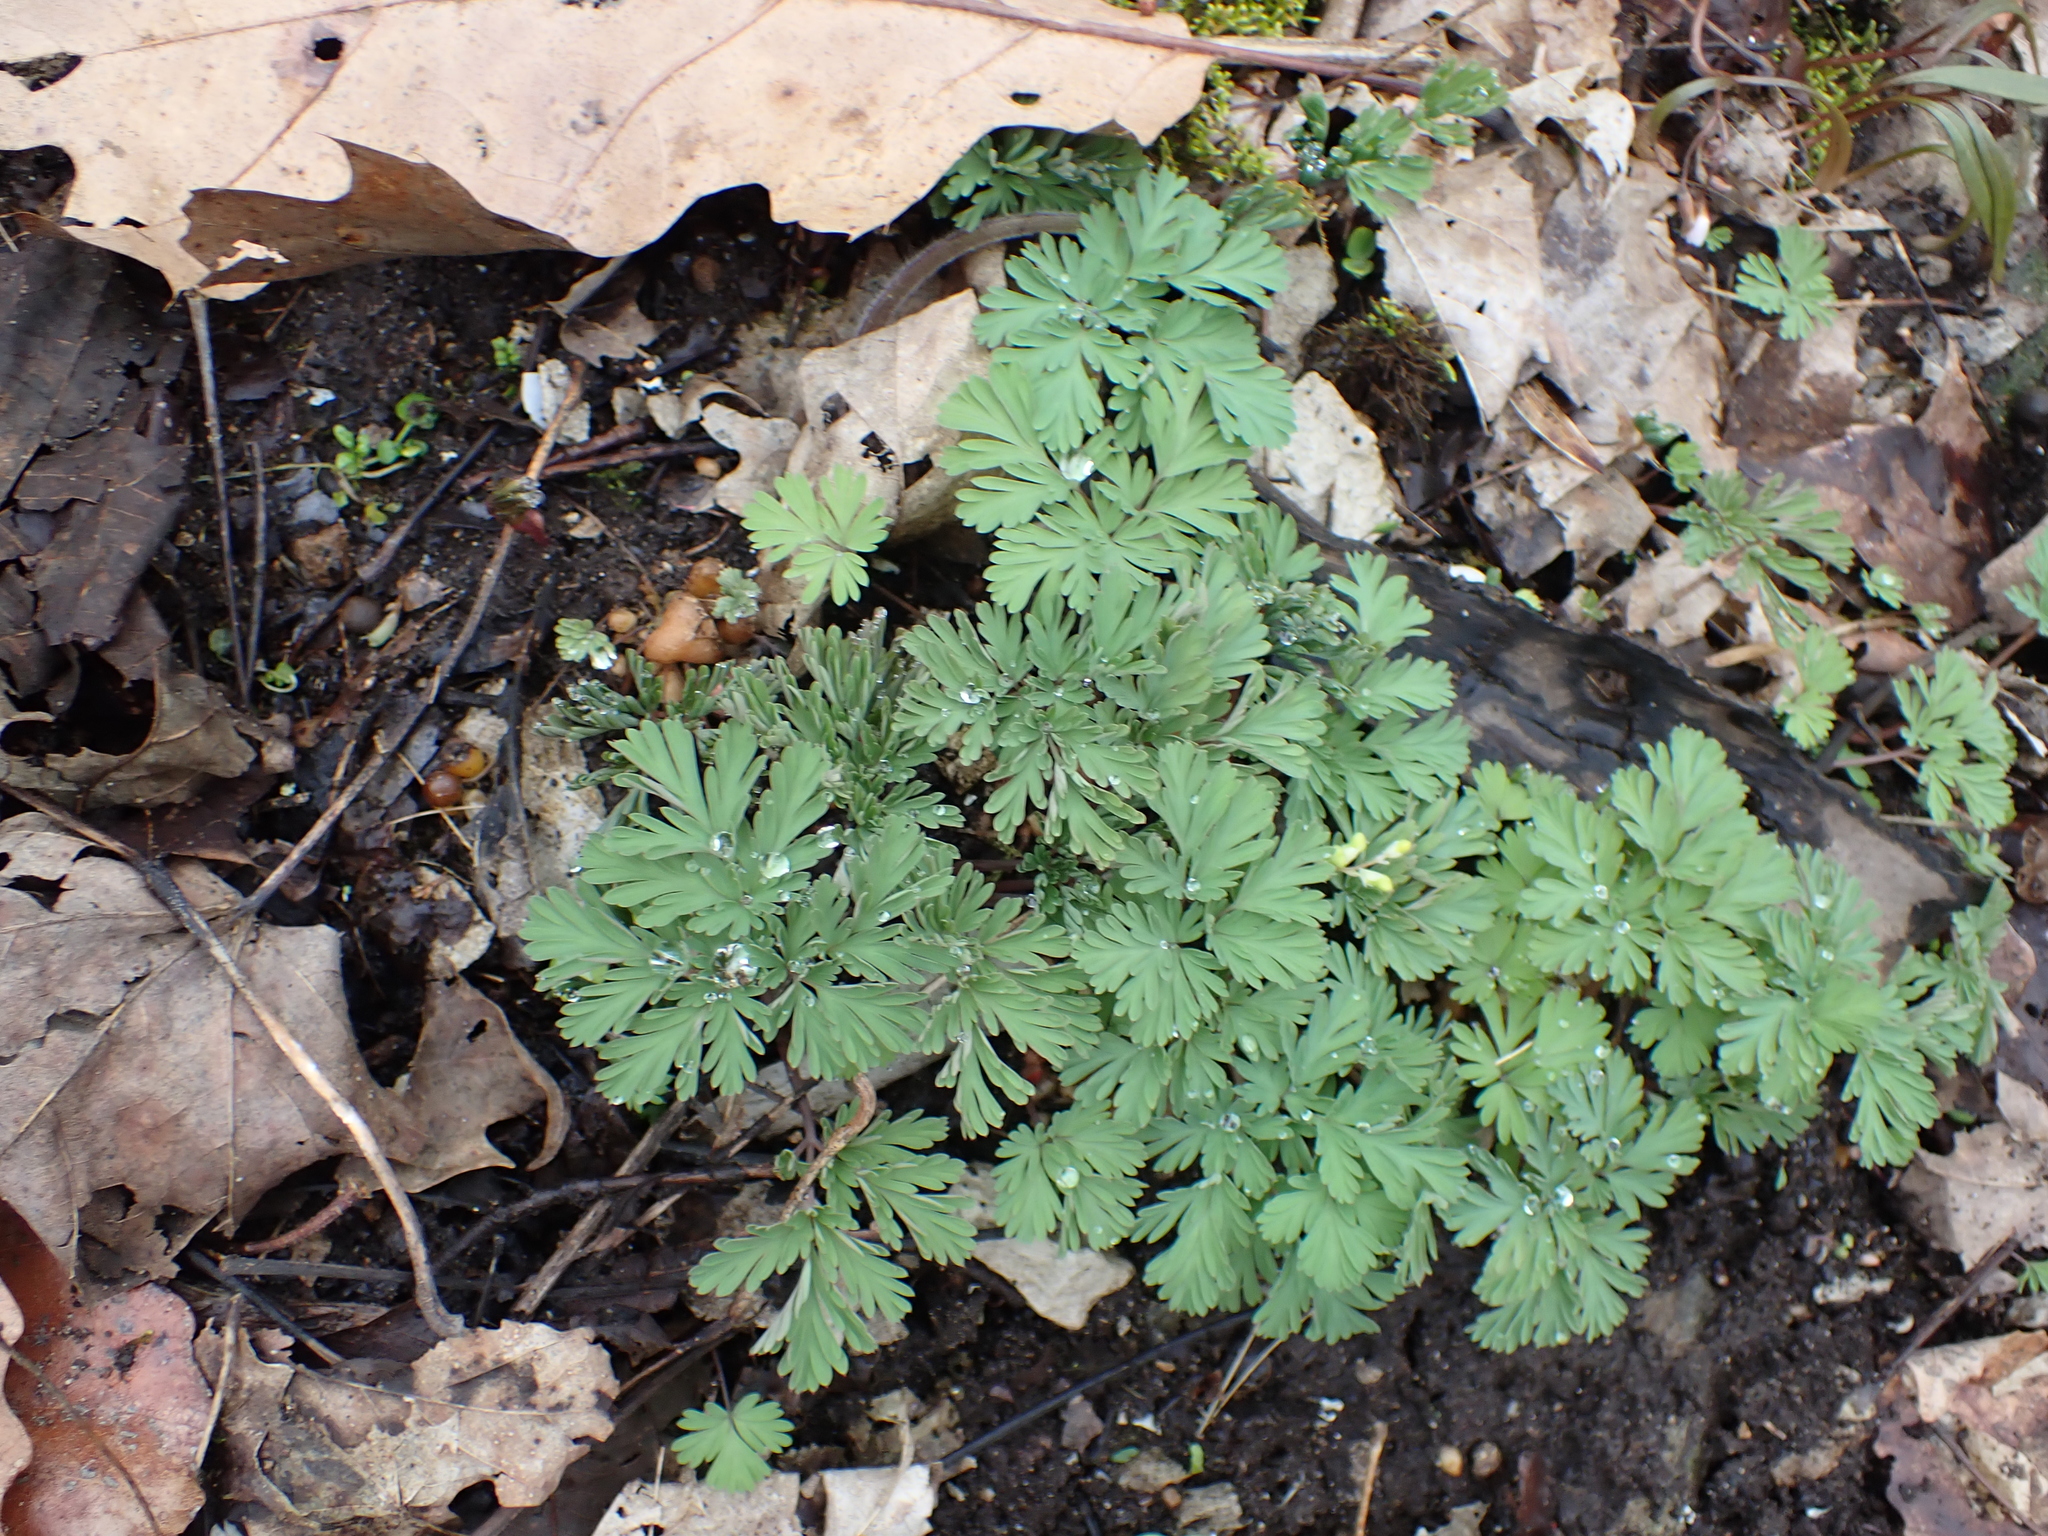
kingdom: Plantae
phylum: Tracheophyta
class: Magnoliopsida
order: Ranunculales
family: Papaveraceae
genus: Dicentra
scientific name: Dicentra cucullaria
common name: Dutchman's breeches
